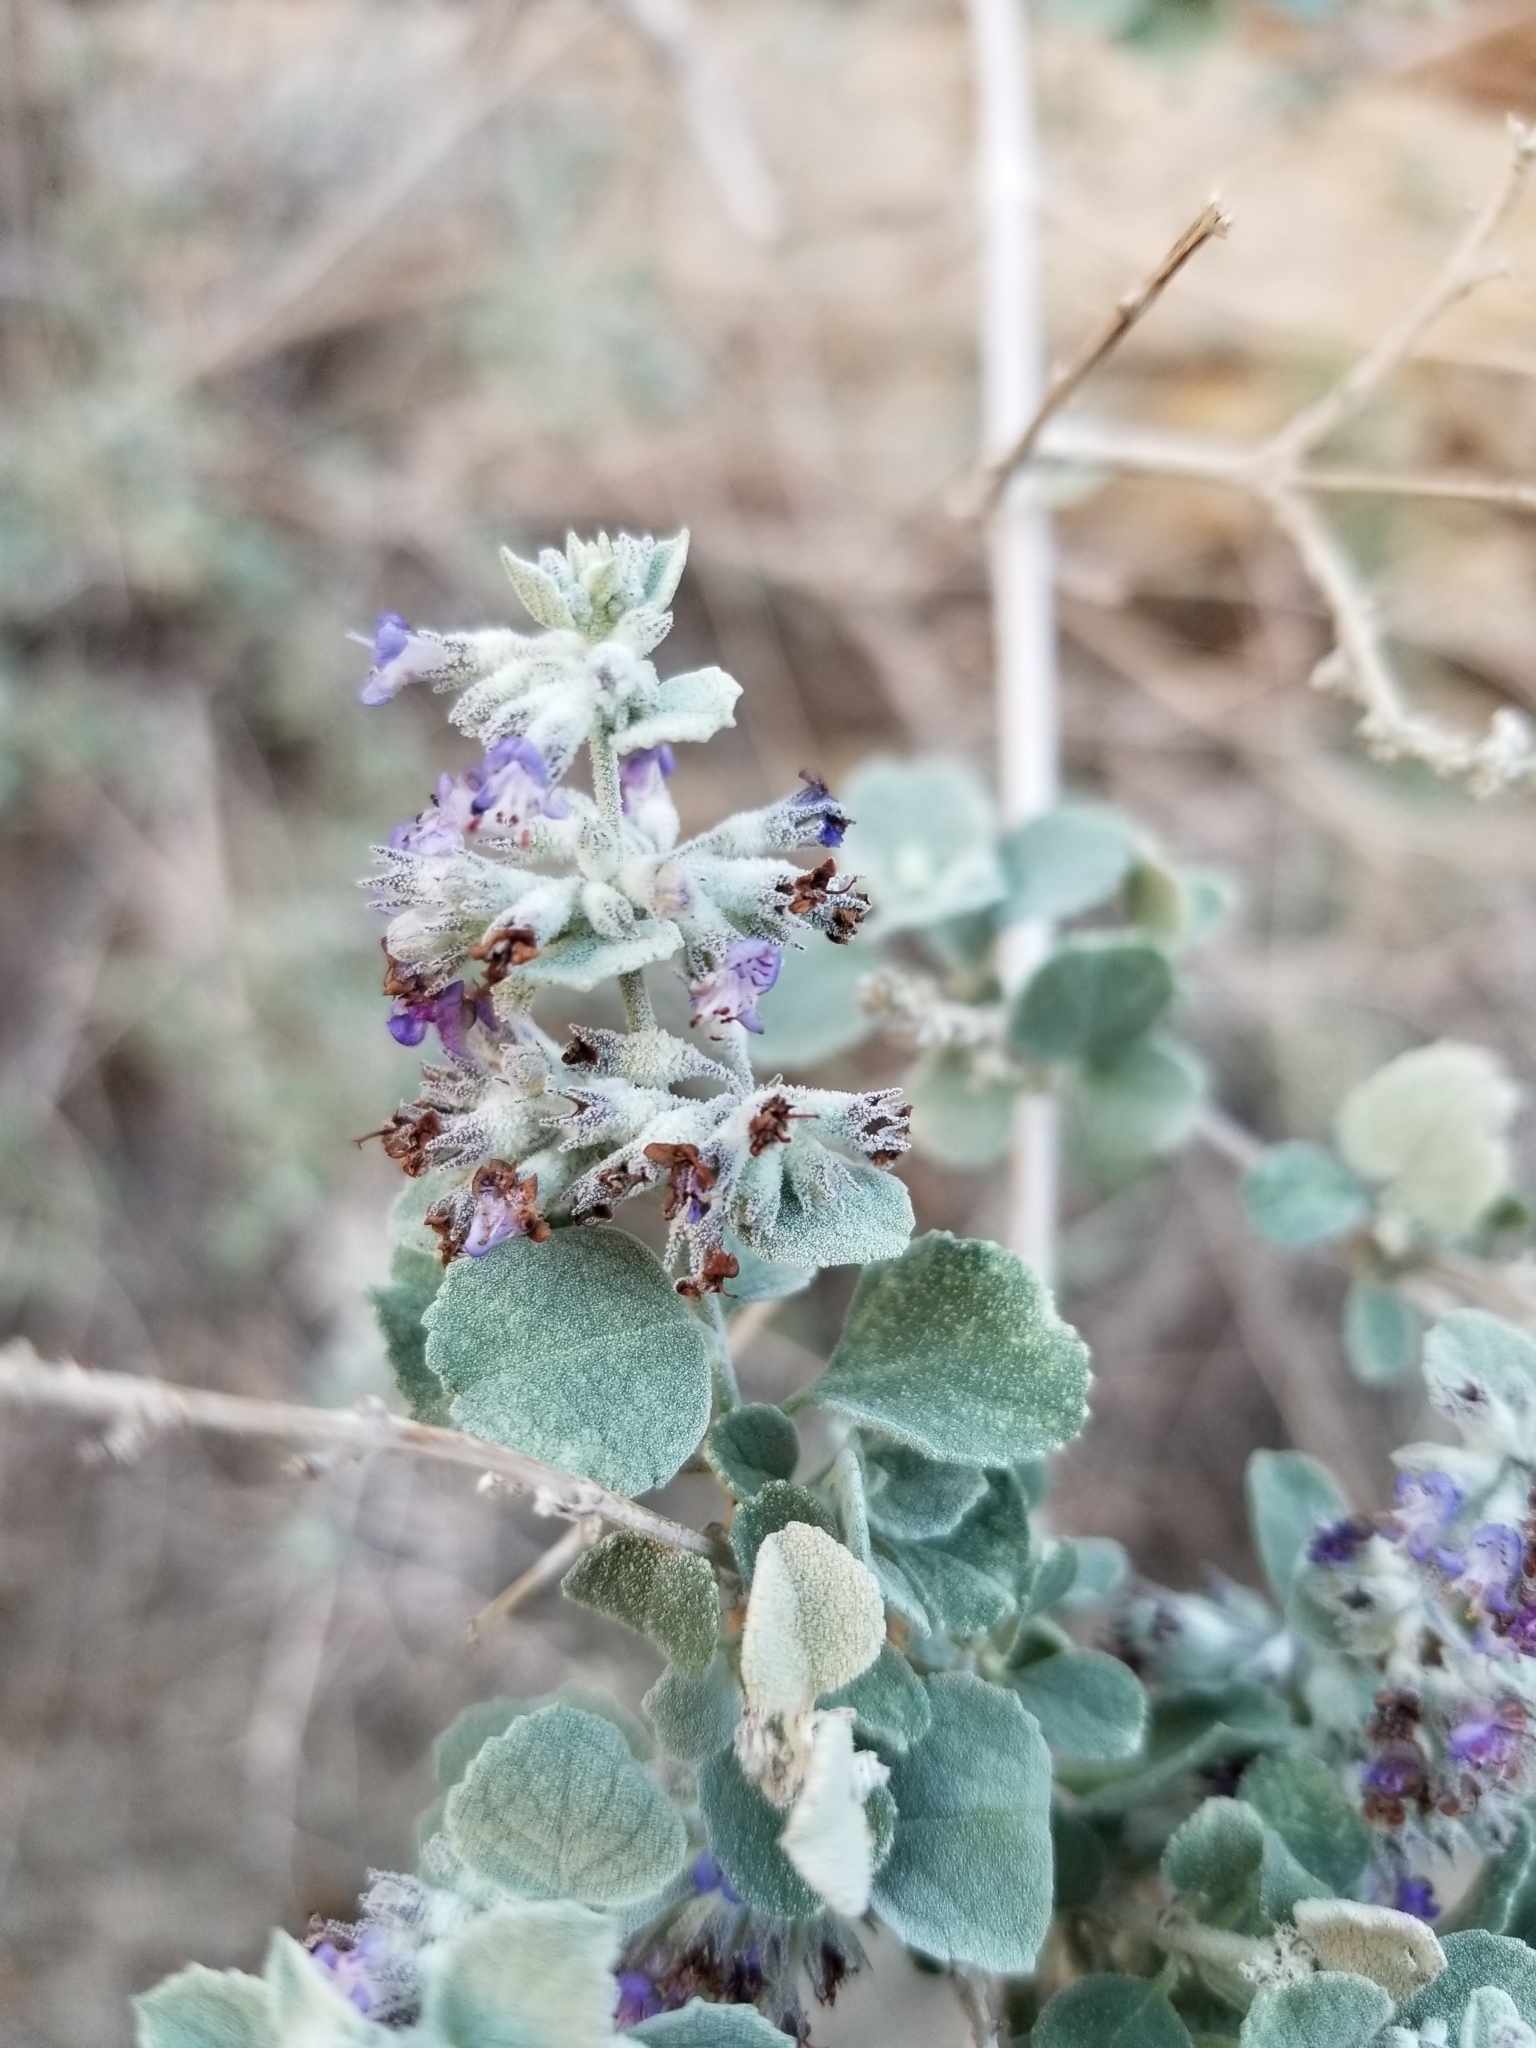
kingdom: Plantae
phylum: Tracheophyta
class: Magnoliopsida
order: Lamiales
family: Lamiaceae
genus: Condea
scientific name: Condea emoryi
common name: Chia
